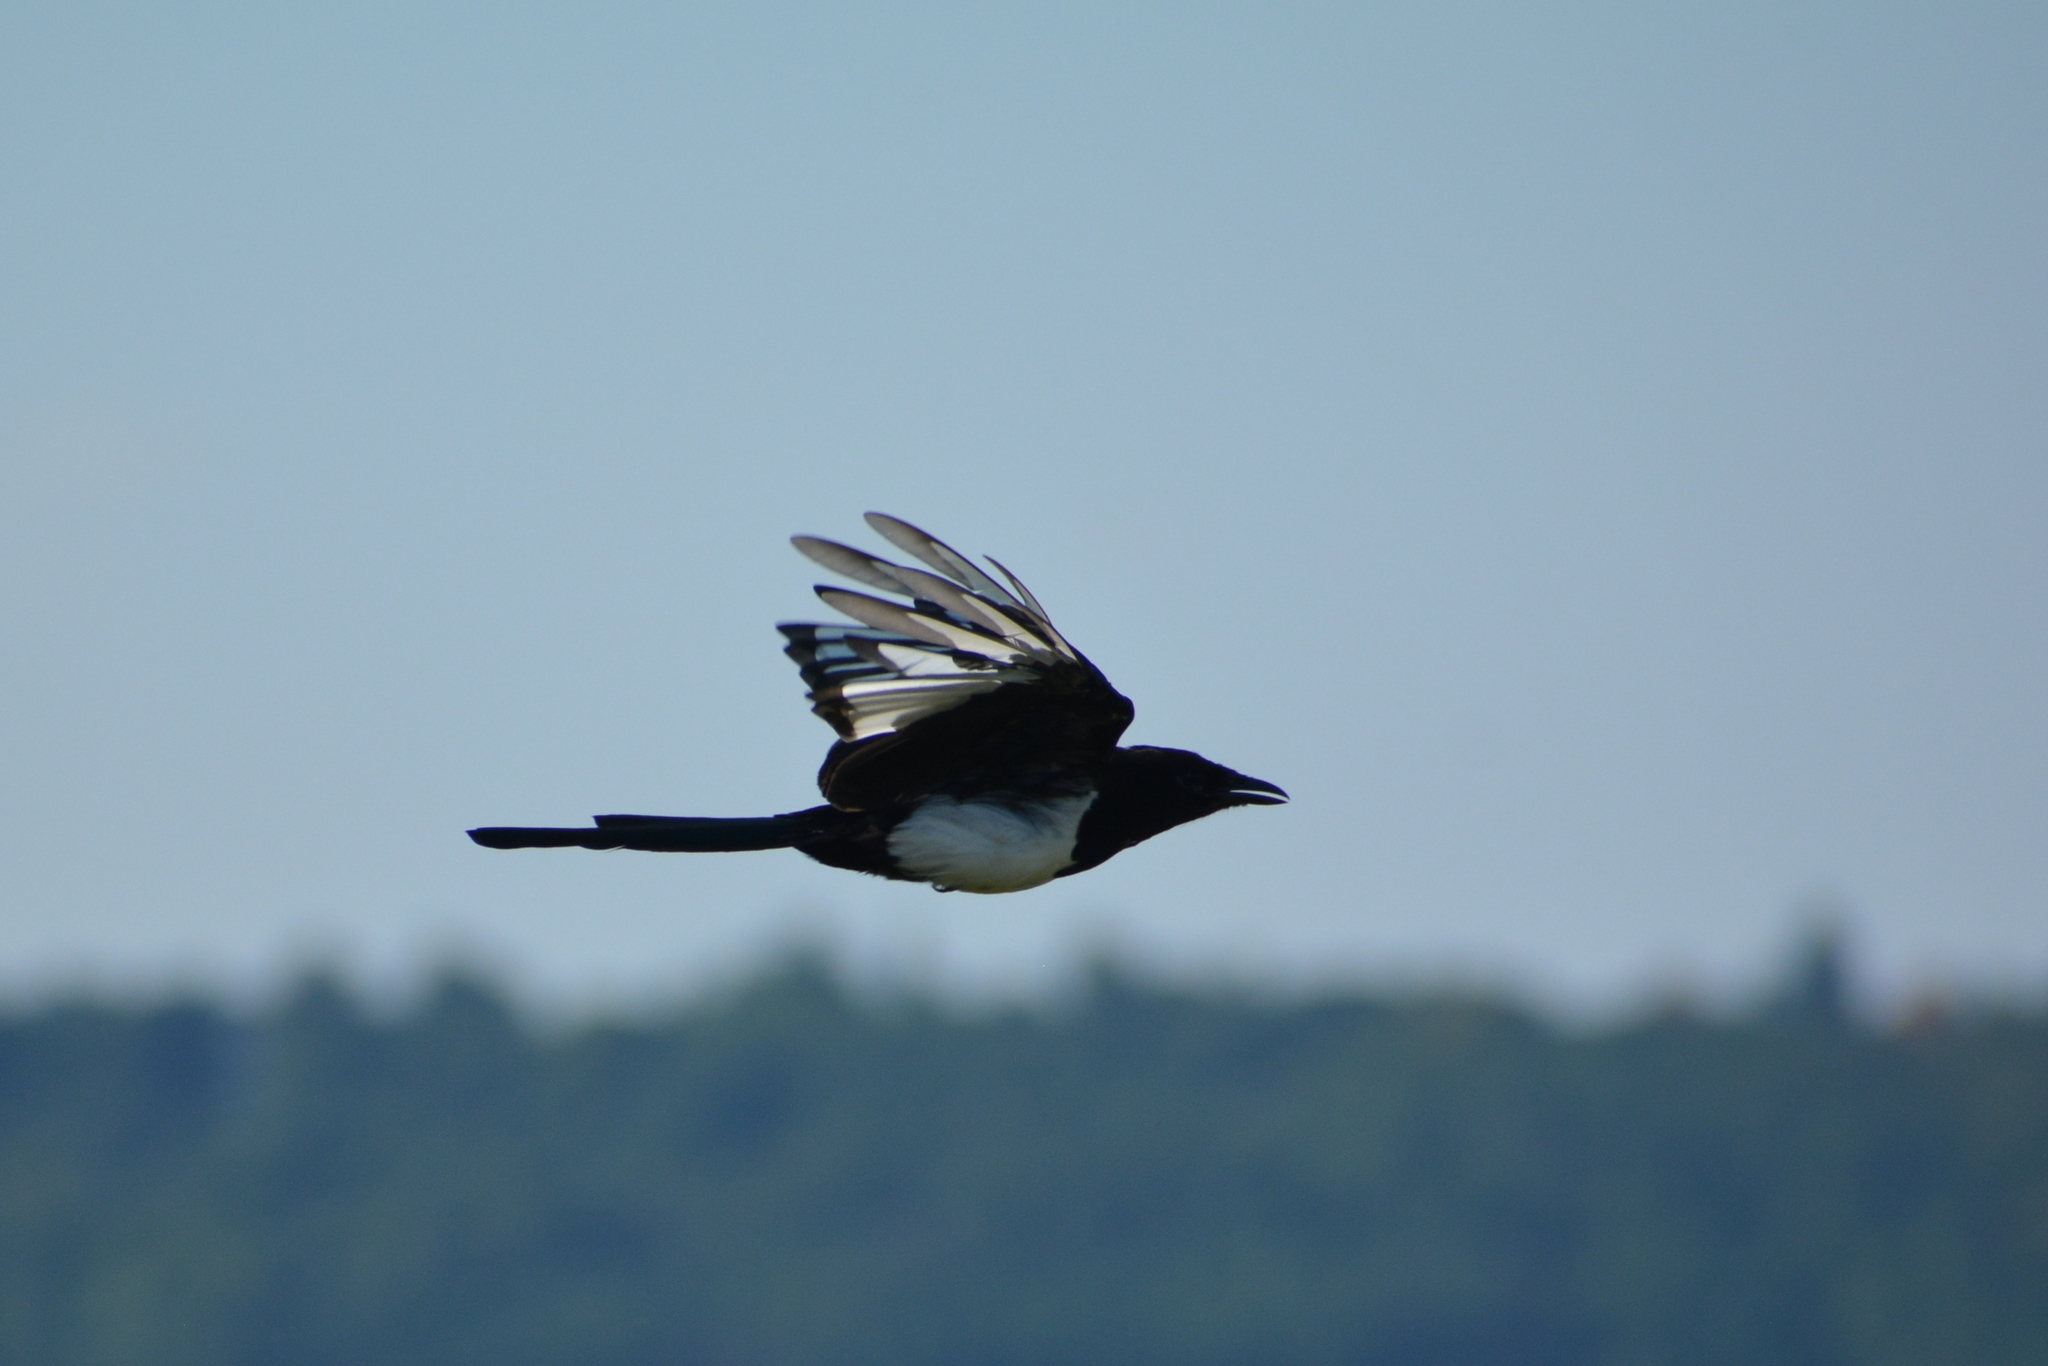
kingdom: Animalia
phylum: Chordata
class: Aves
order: Passeriformes
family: Corvidae
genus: Pica
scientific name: Pica pica
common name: Eurasian magpie
